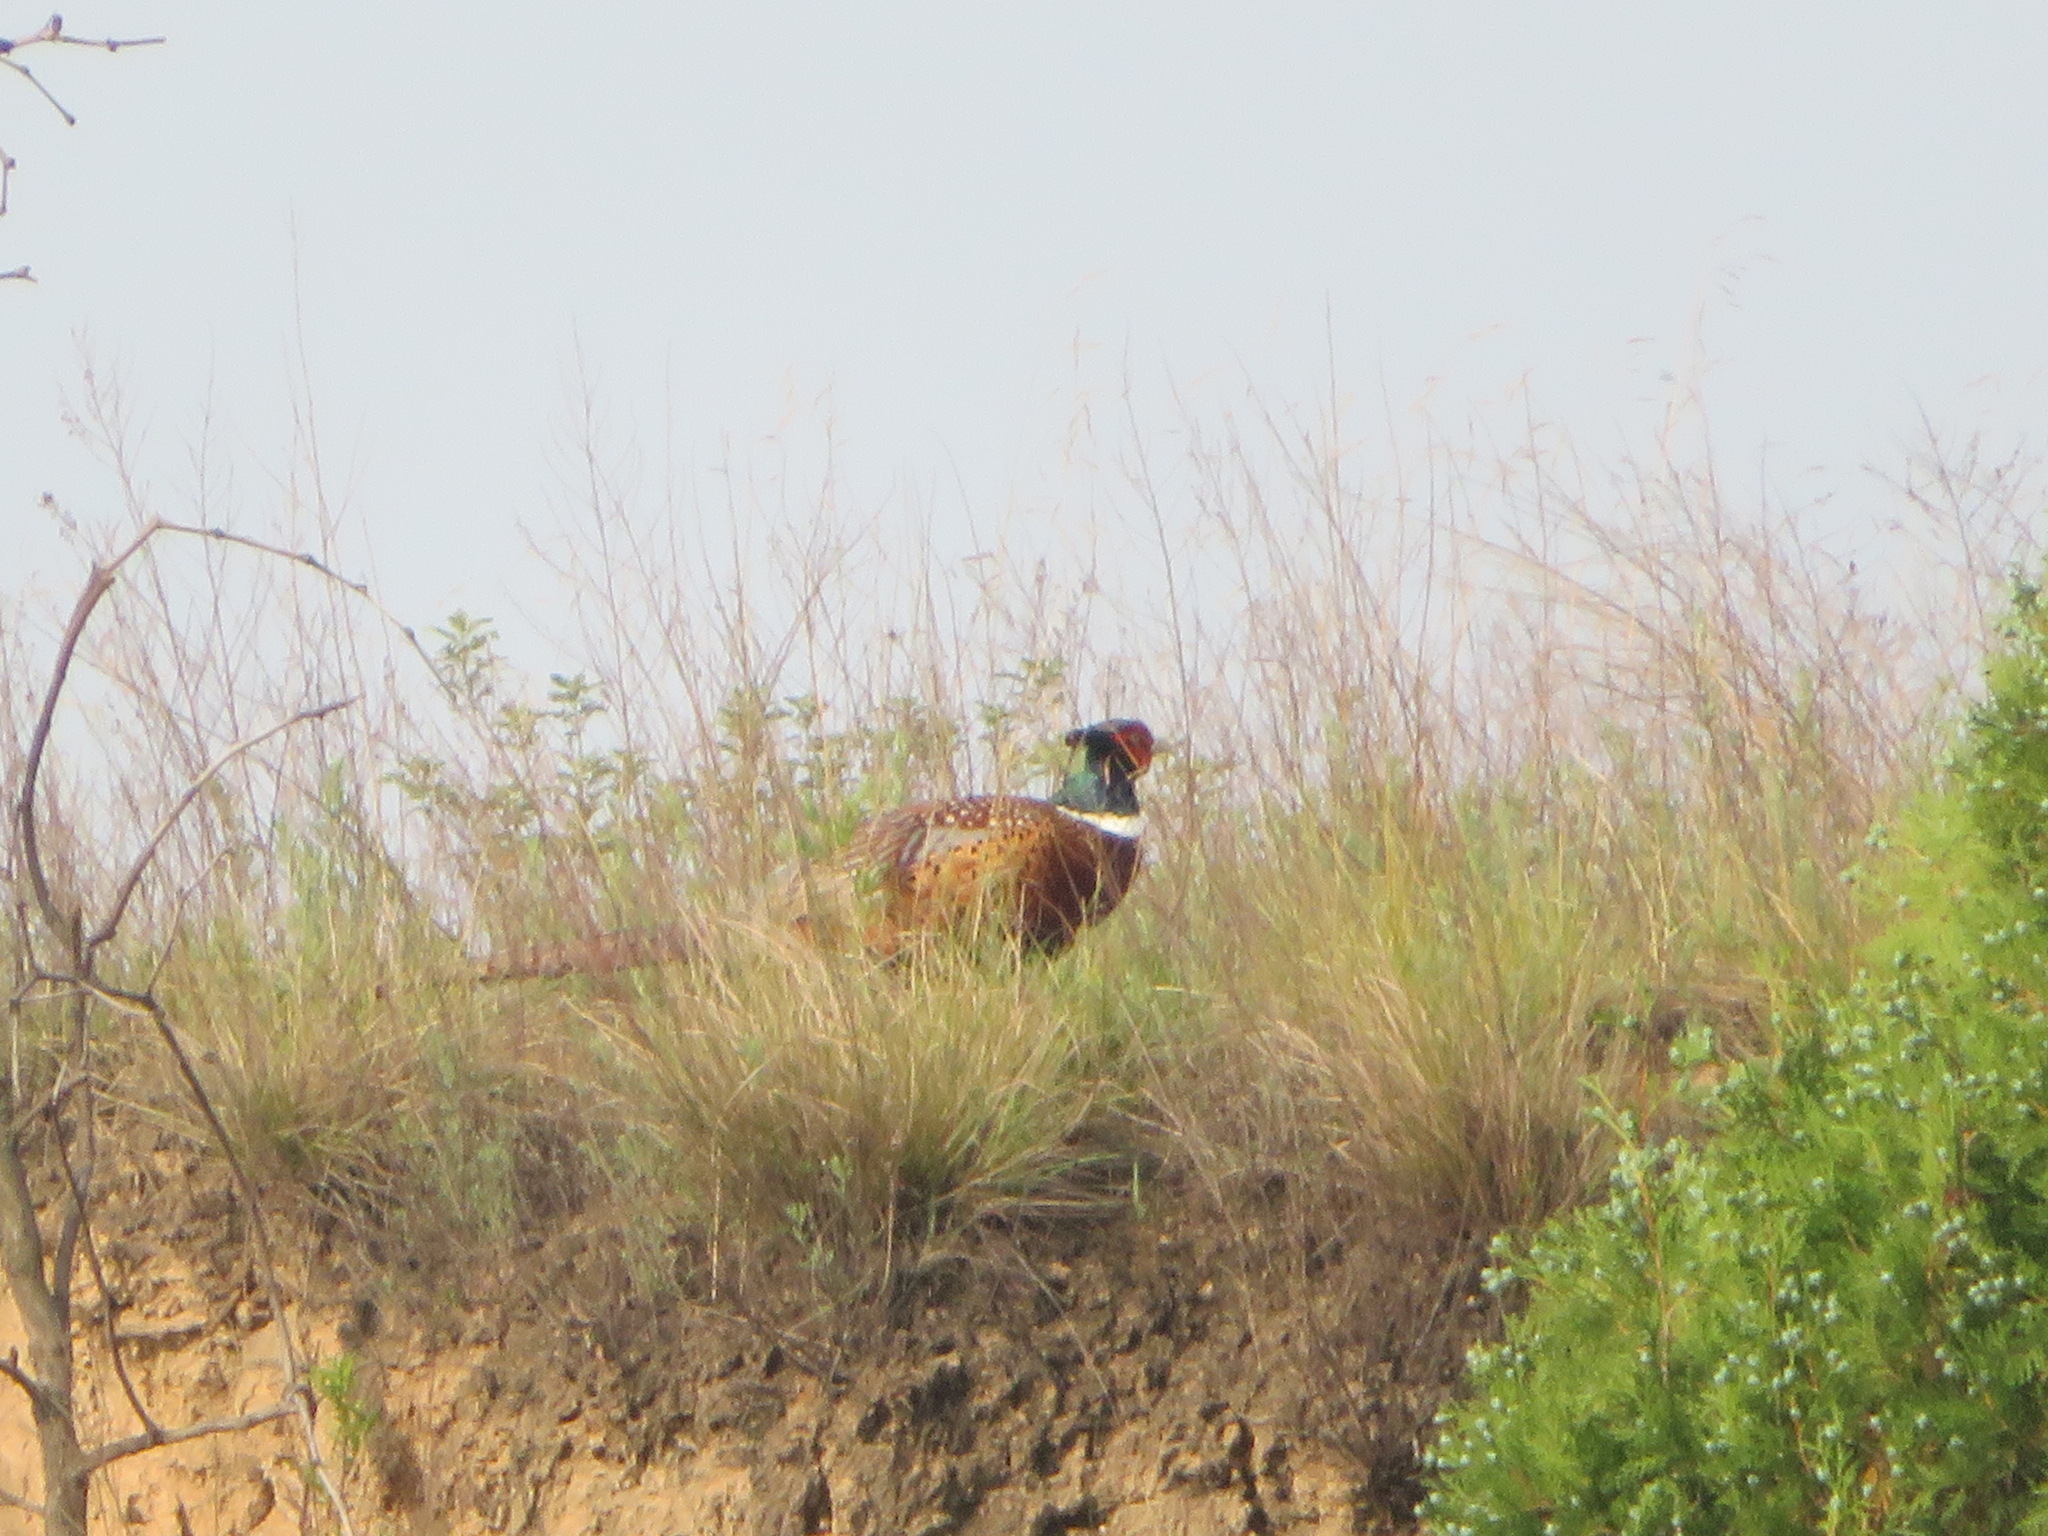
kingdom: Animalia
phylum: Chordata
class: Aves
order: Galliformes
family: Phasianidae
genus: Phasianus
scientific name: Phasianus colchicus
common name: Common pheasant
